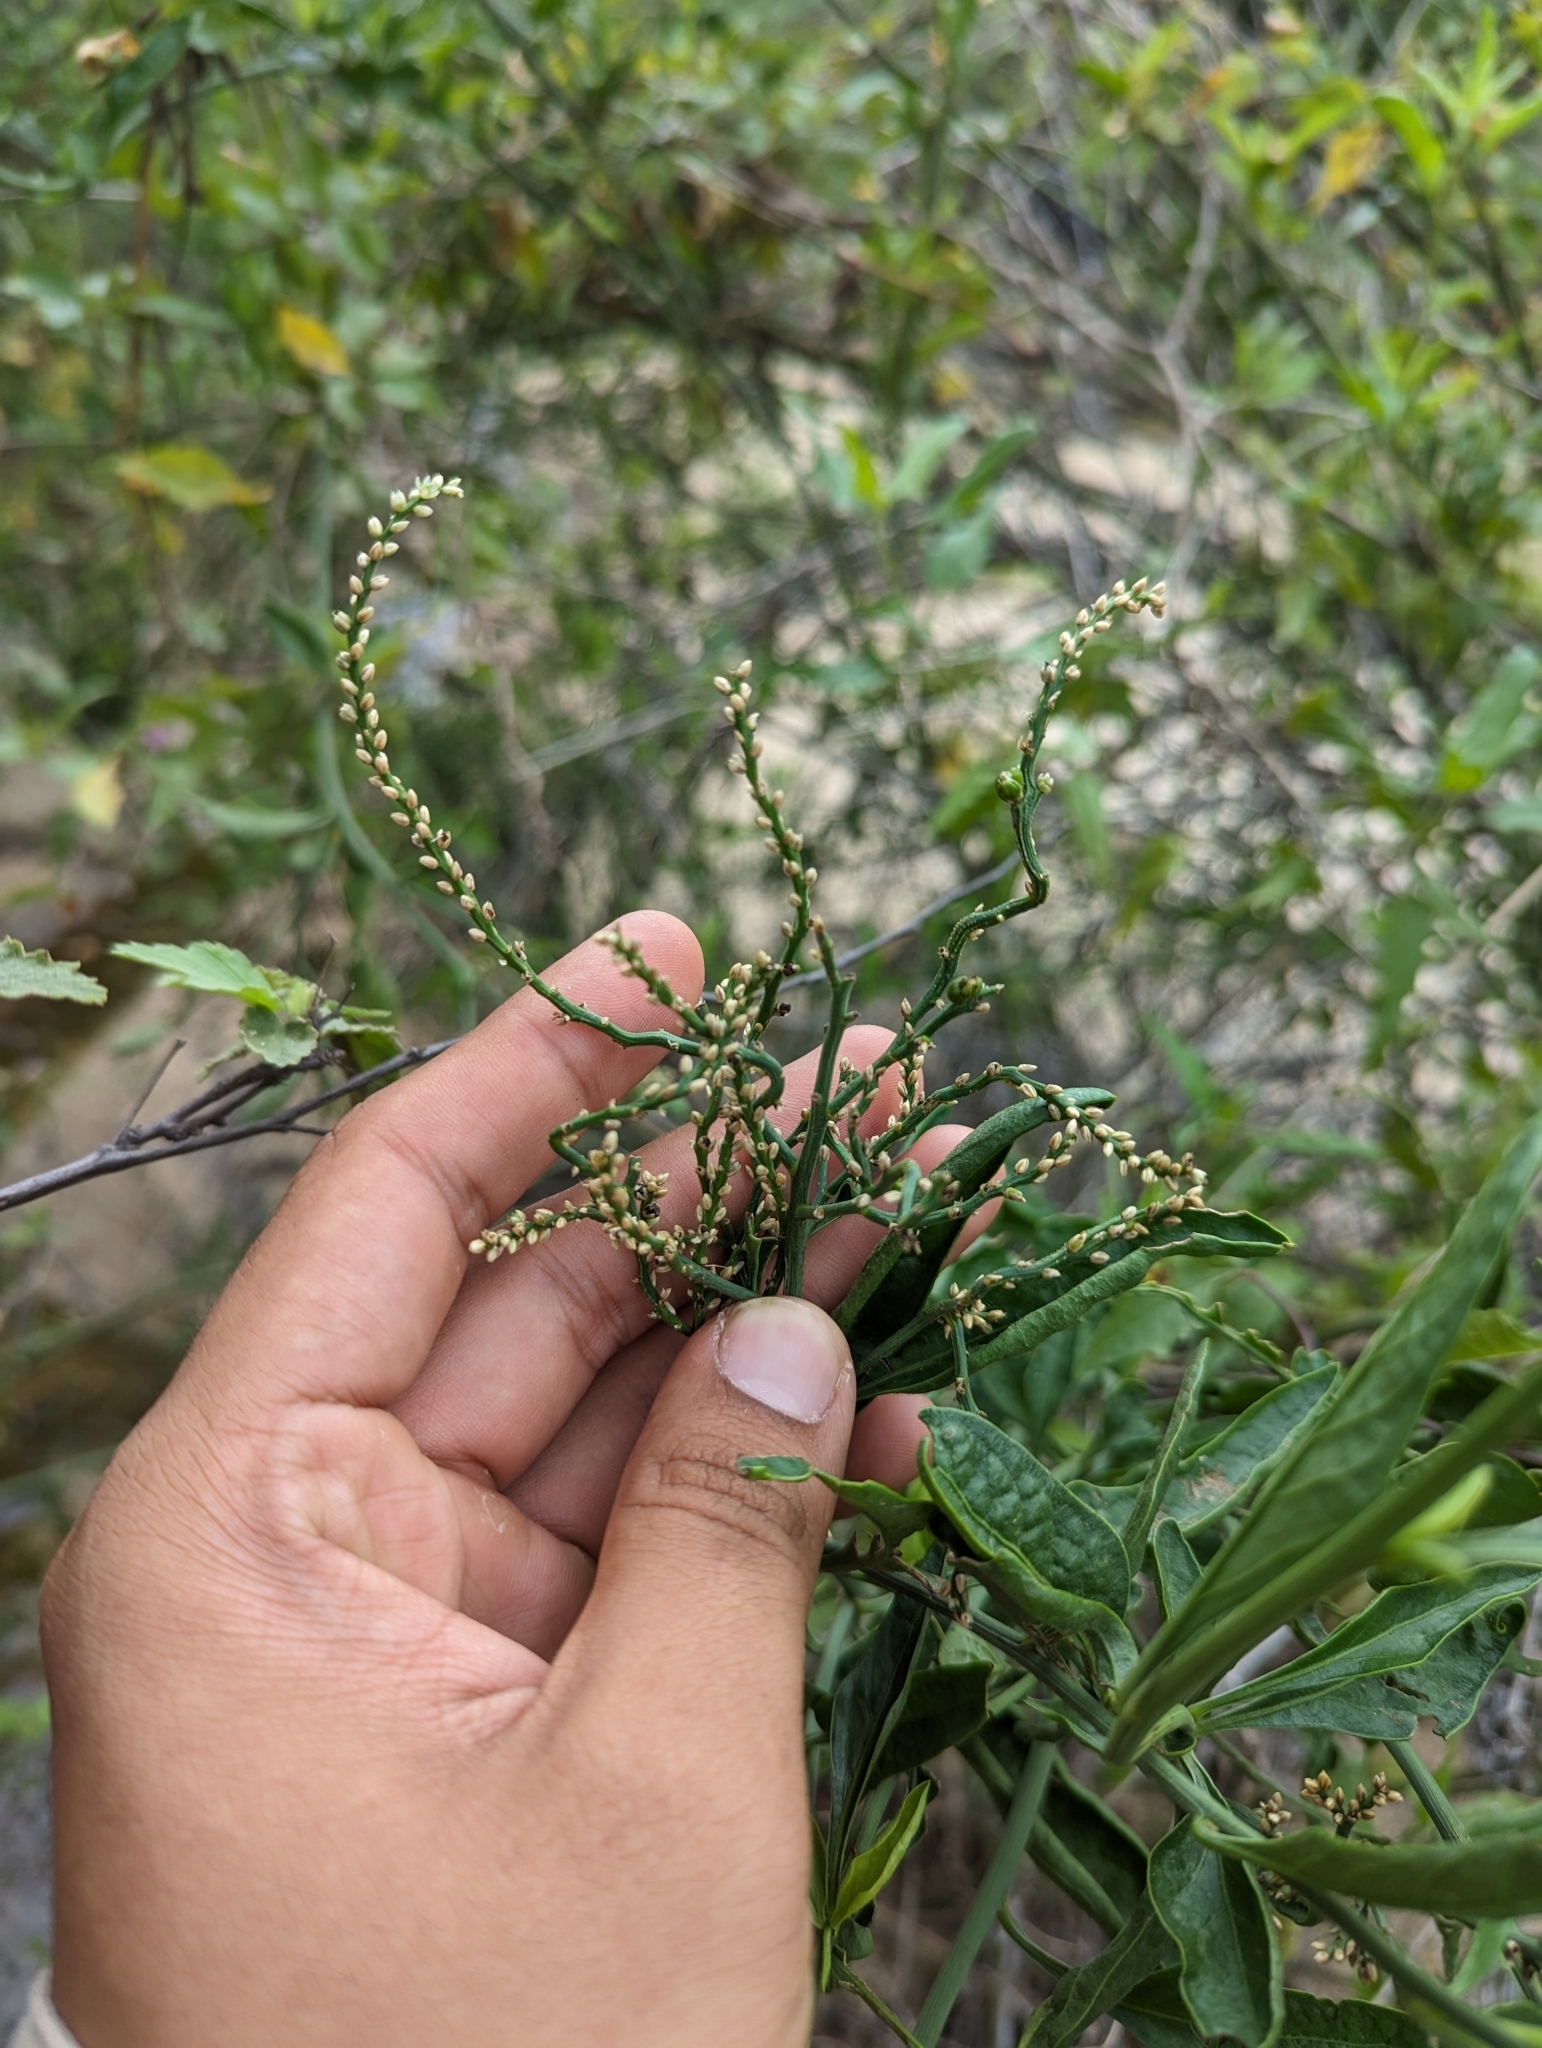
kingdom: Plantae
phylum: Tracheophyta
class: Magnoliopsida
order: Caryophyllales
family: Amaranthaceae
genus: Celosia
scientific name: Celosia floribunda
